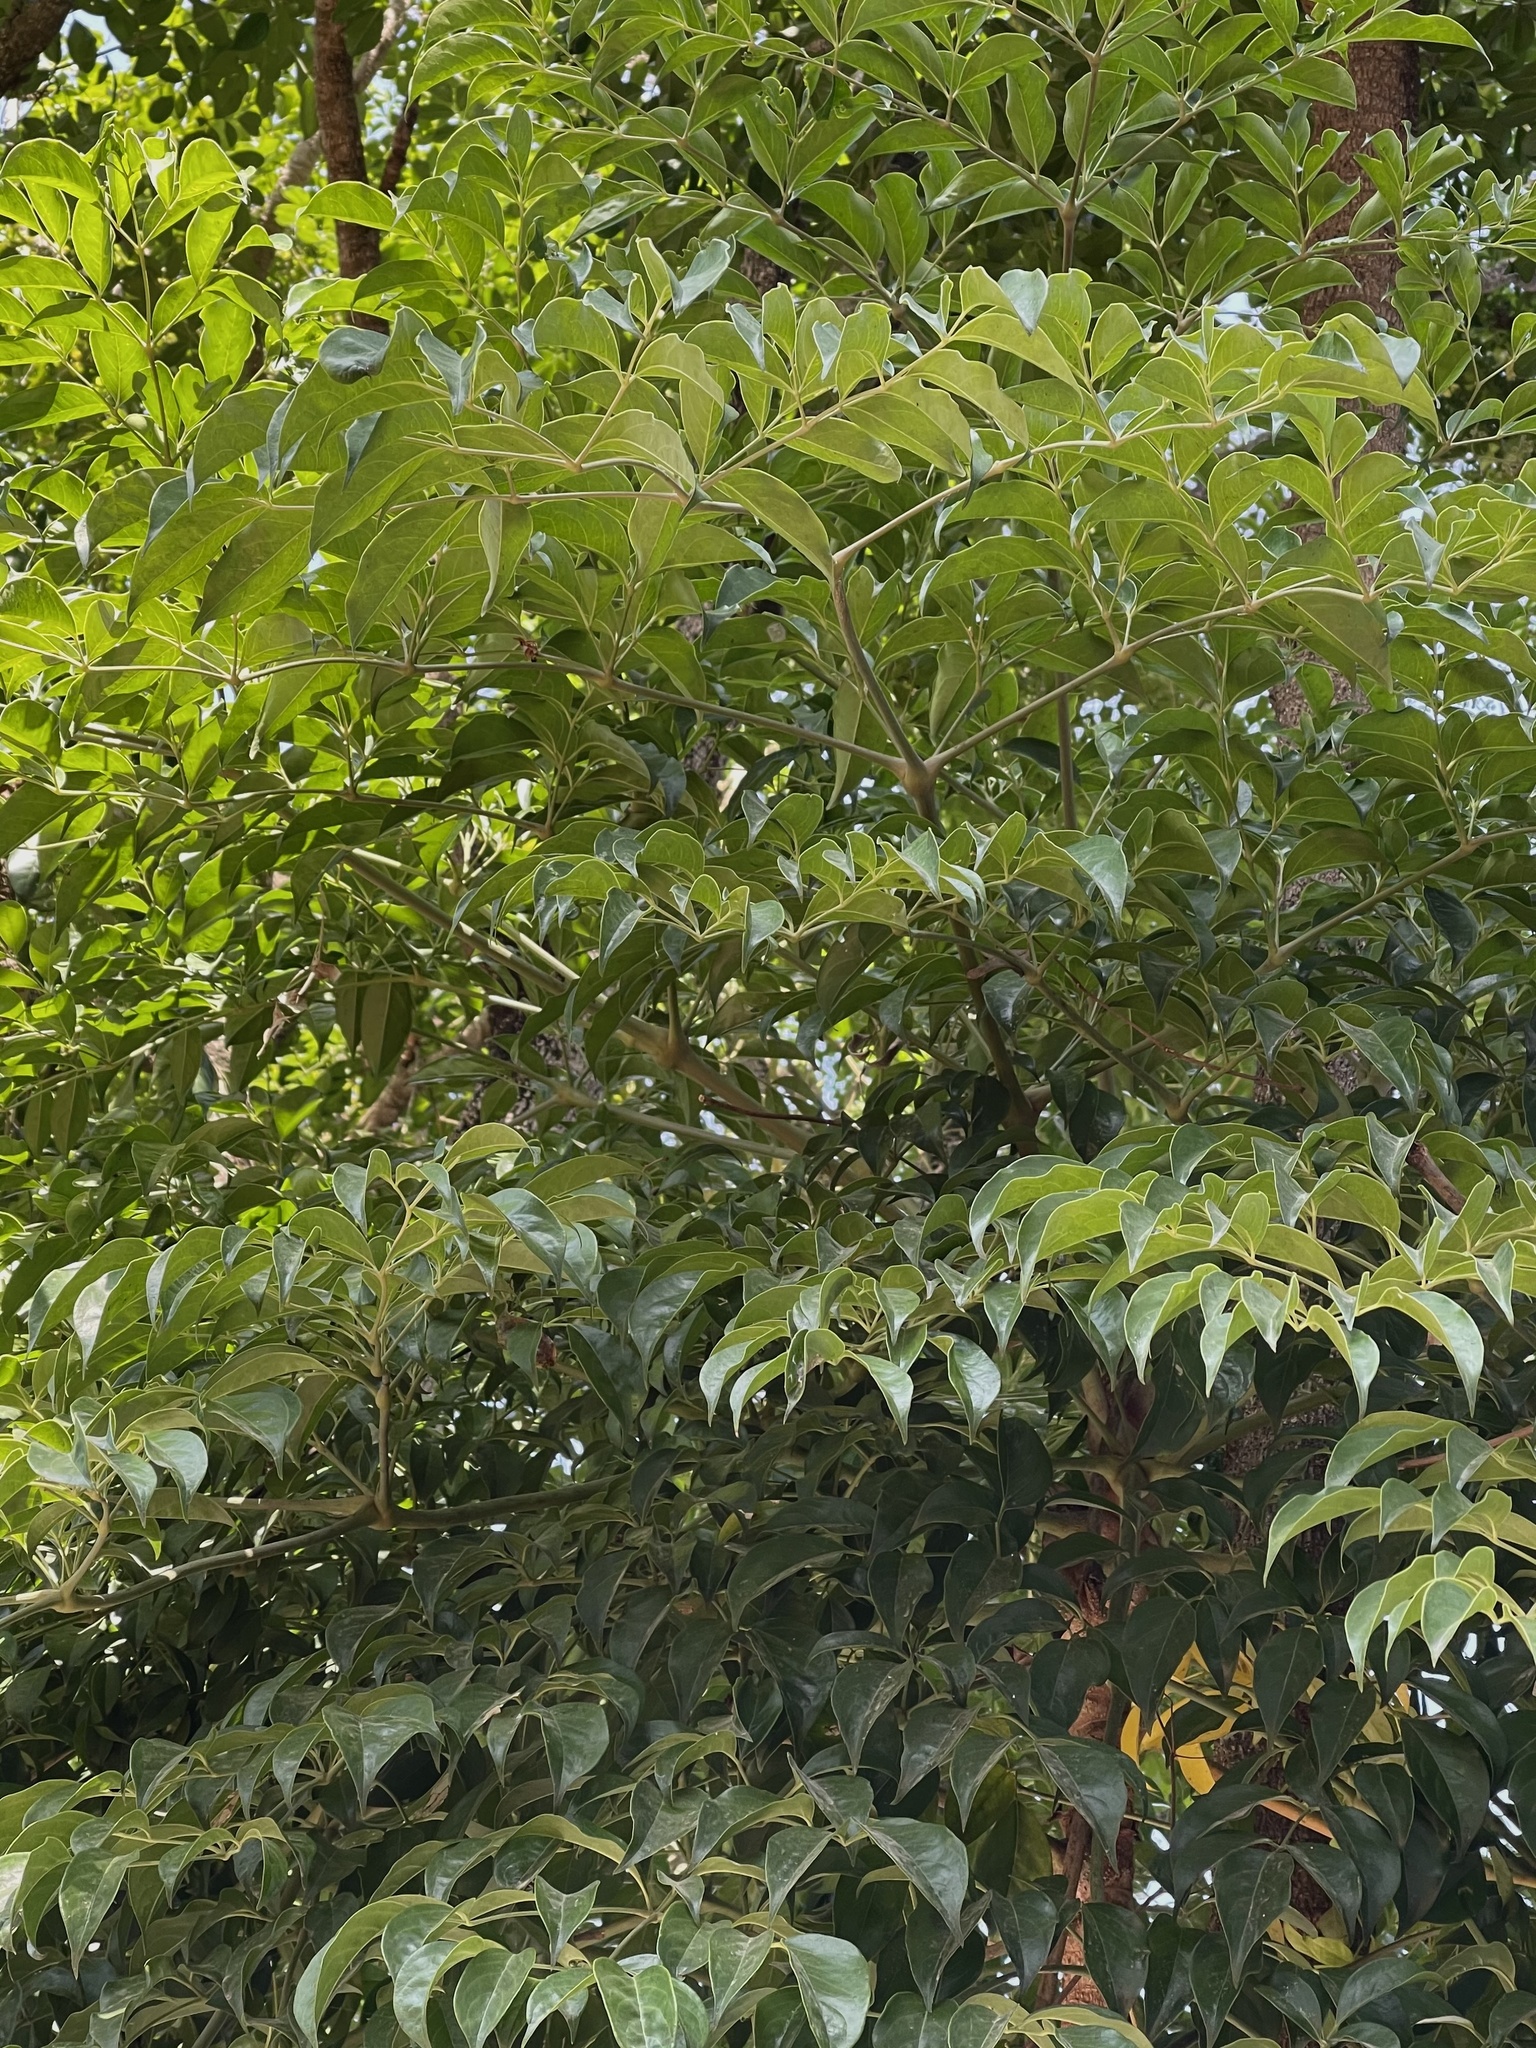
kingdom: Plantae
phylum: Tracheophyta
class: Magnoliopsida
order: Apiales
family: Araliaceae
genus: Heteropanax
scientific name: Heteropanax fragrans
